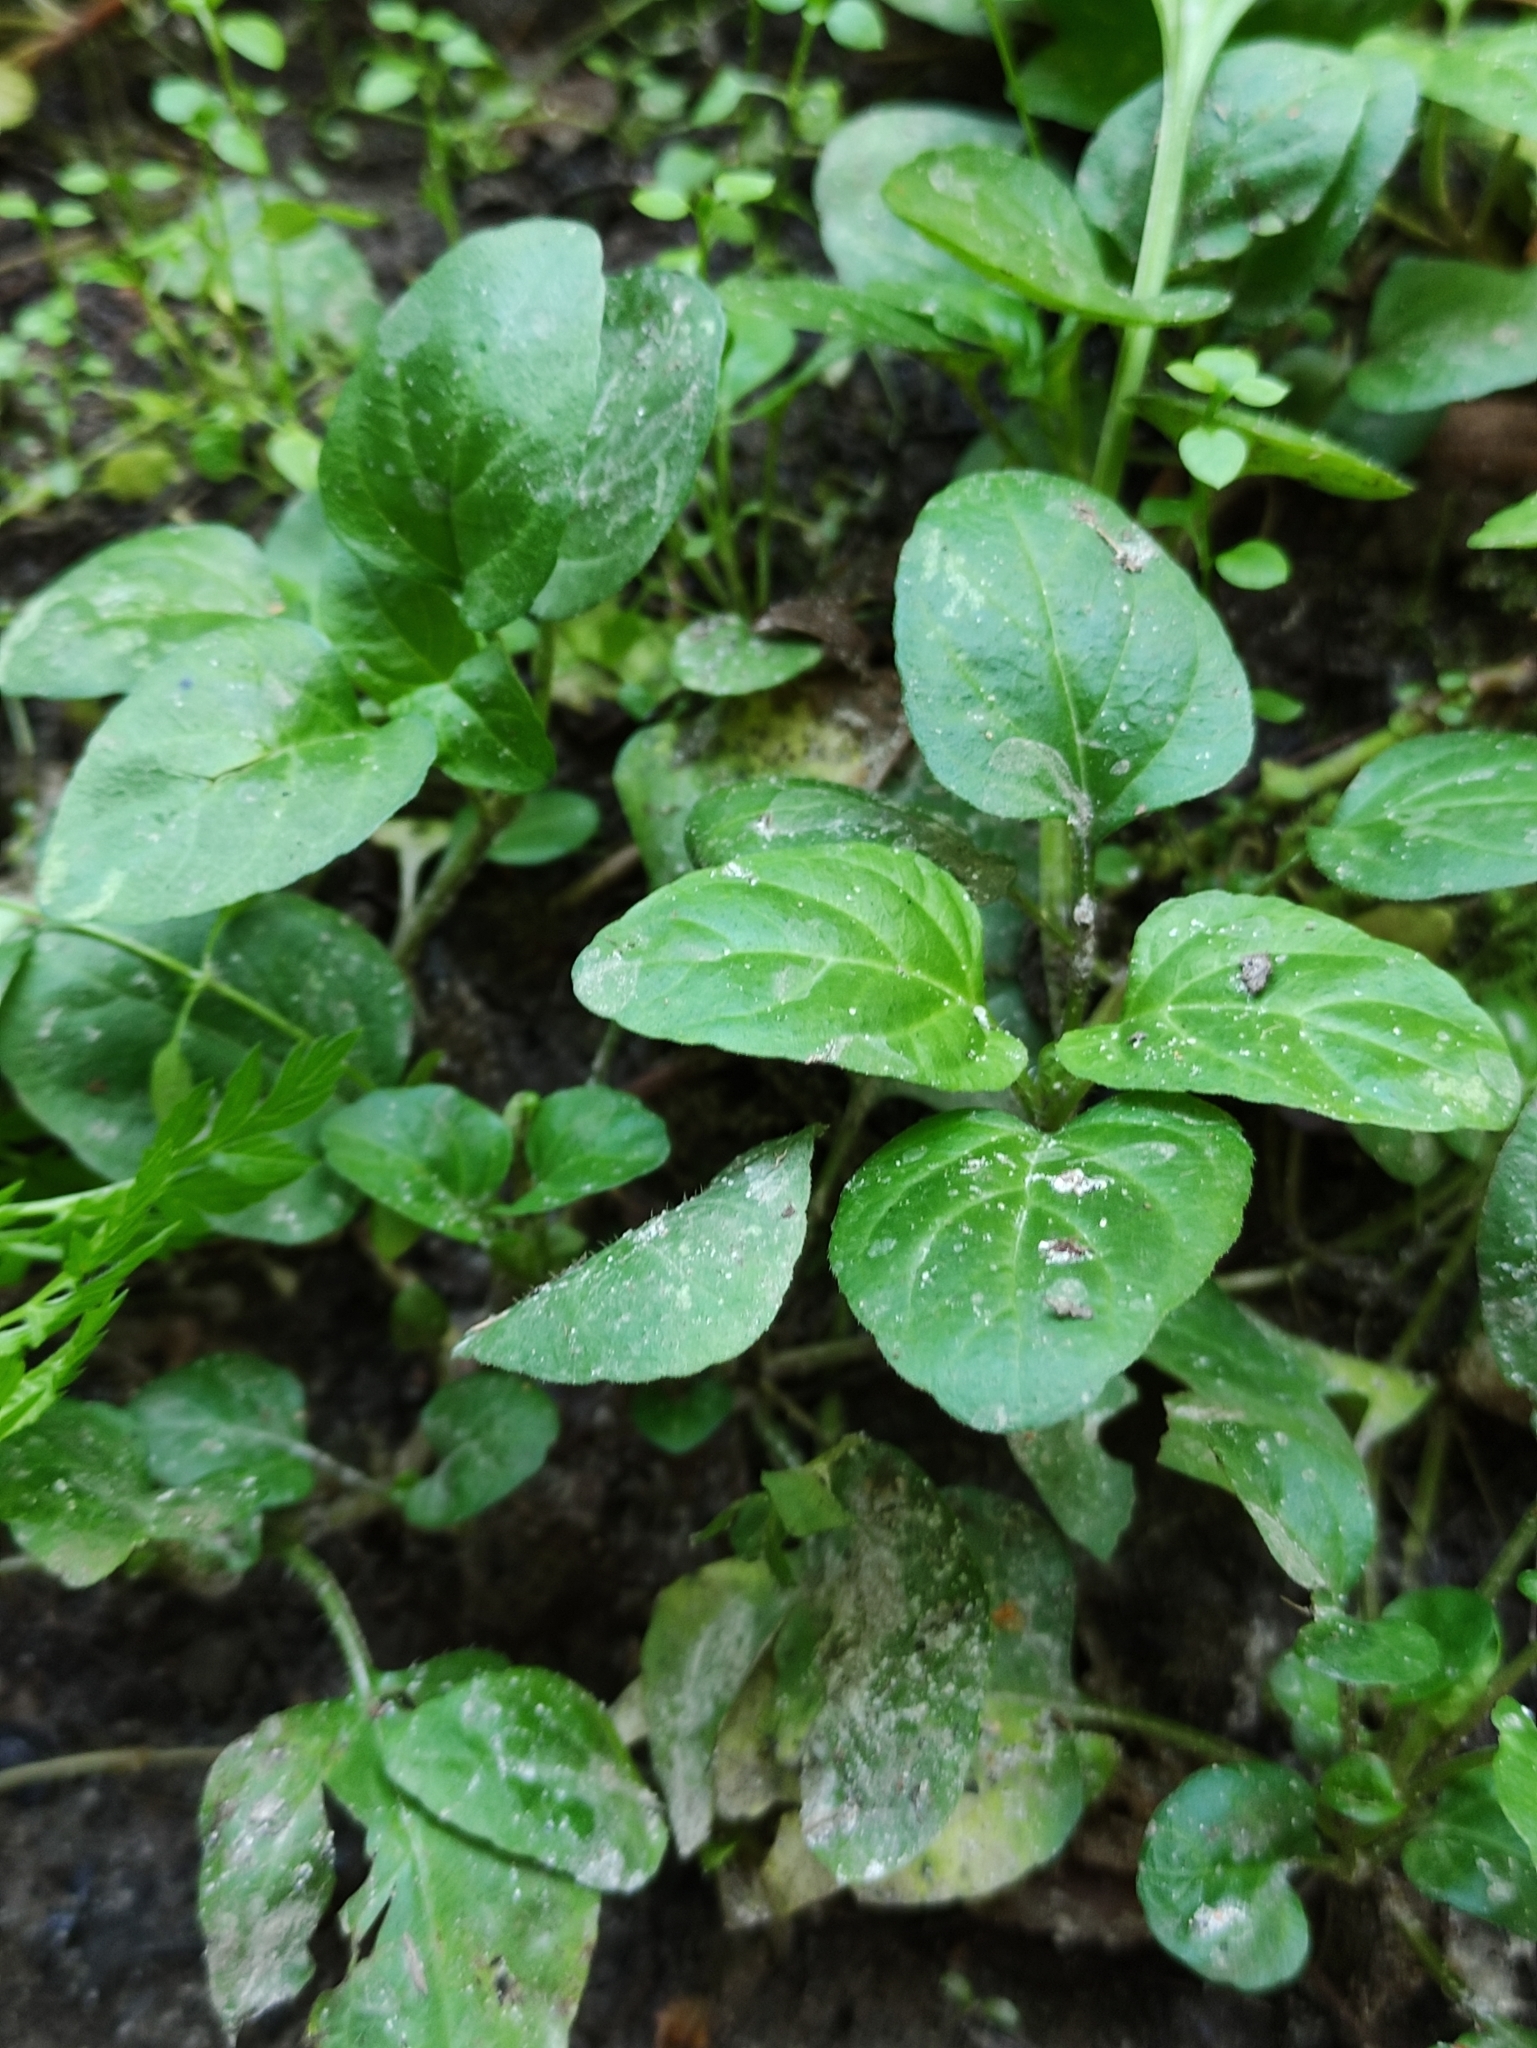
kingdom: Plantae
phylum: Tracheophyta
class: Magnoliopsida
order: Lamiales
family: Lamiaceae
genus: Prunella
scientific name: Prunella vulgaris
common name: Heal-all
